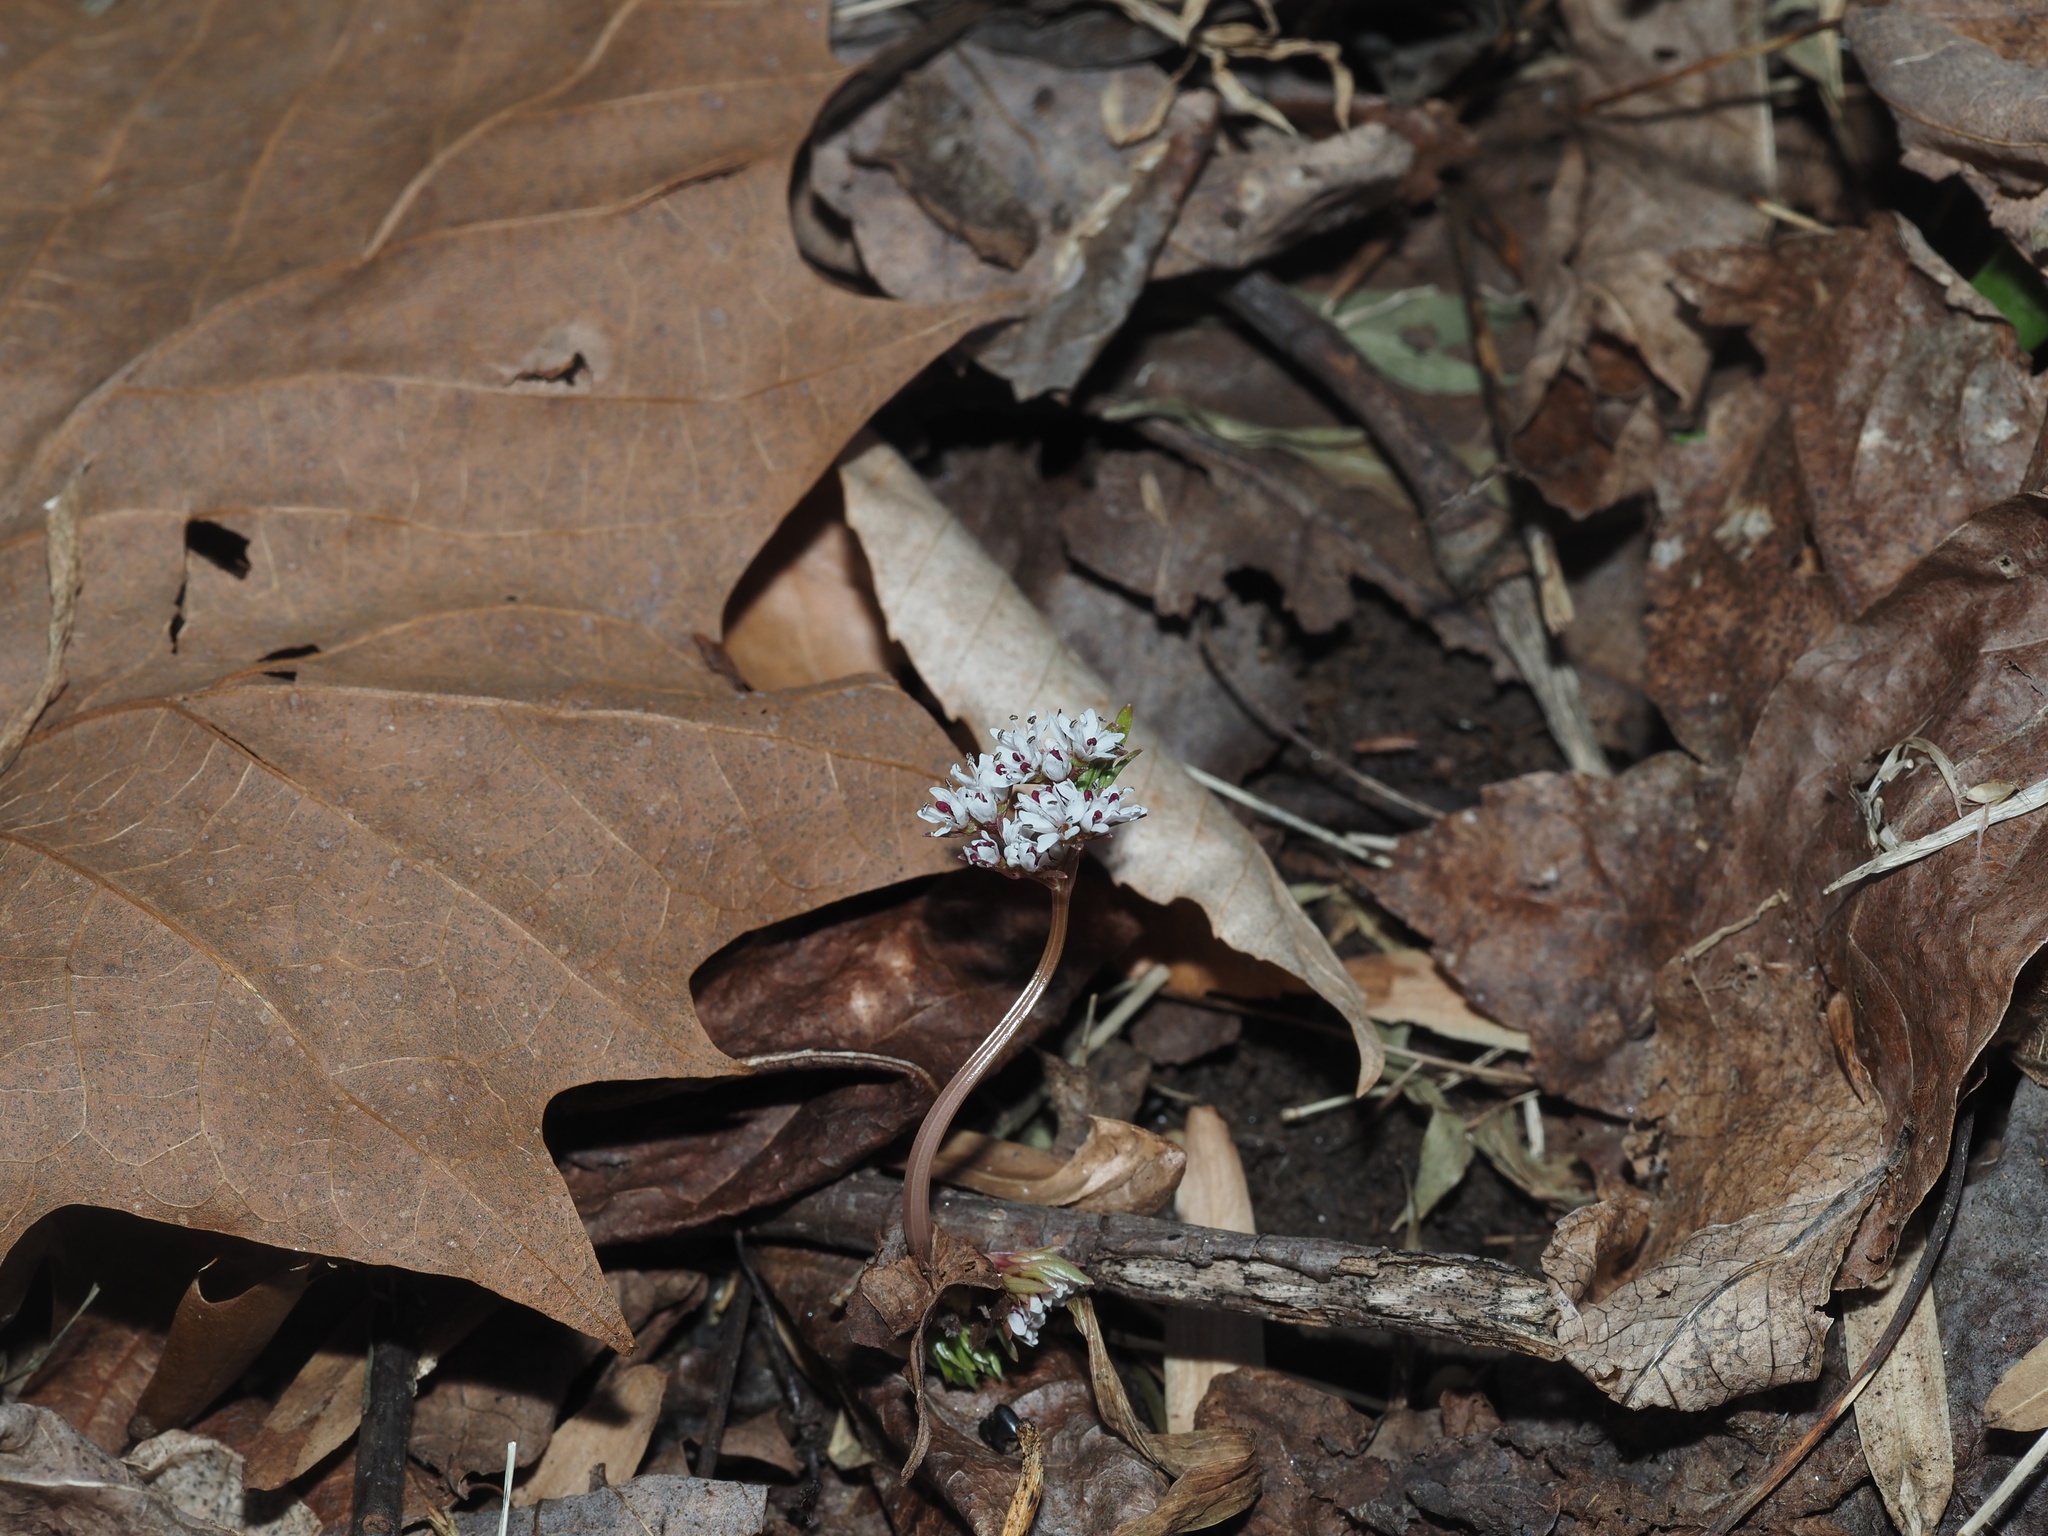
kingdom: Plantae
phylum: Tracheophyta
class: Magnoliopsida
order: Apiales
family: Apiaceae
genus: Erigenia
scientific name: Erigenia bulbosa
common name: Pepper-and-salt
